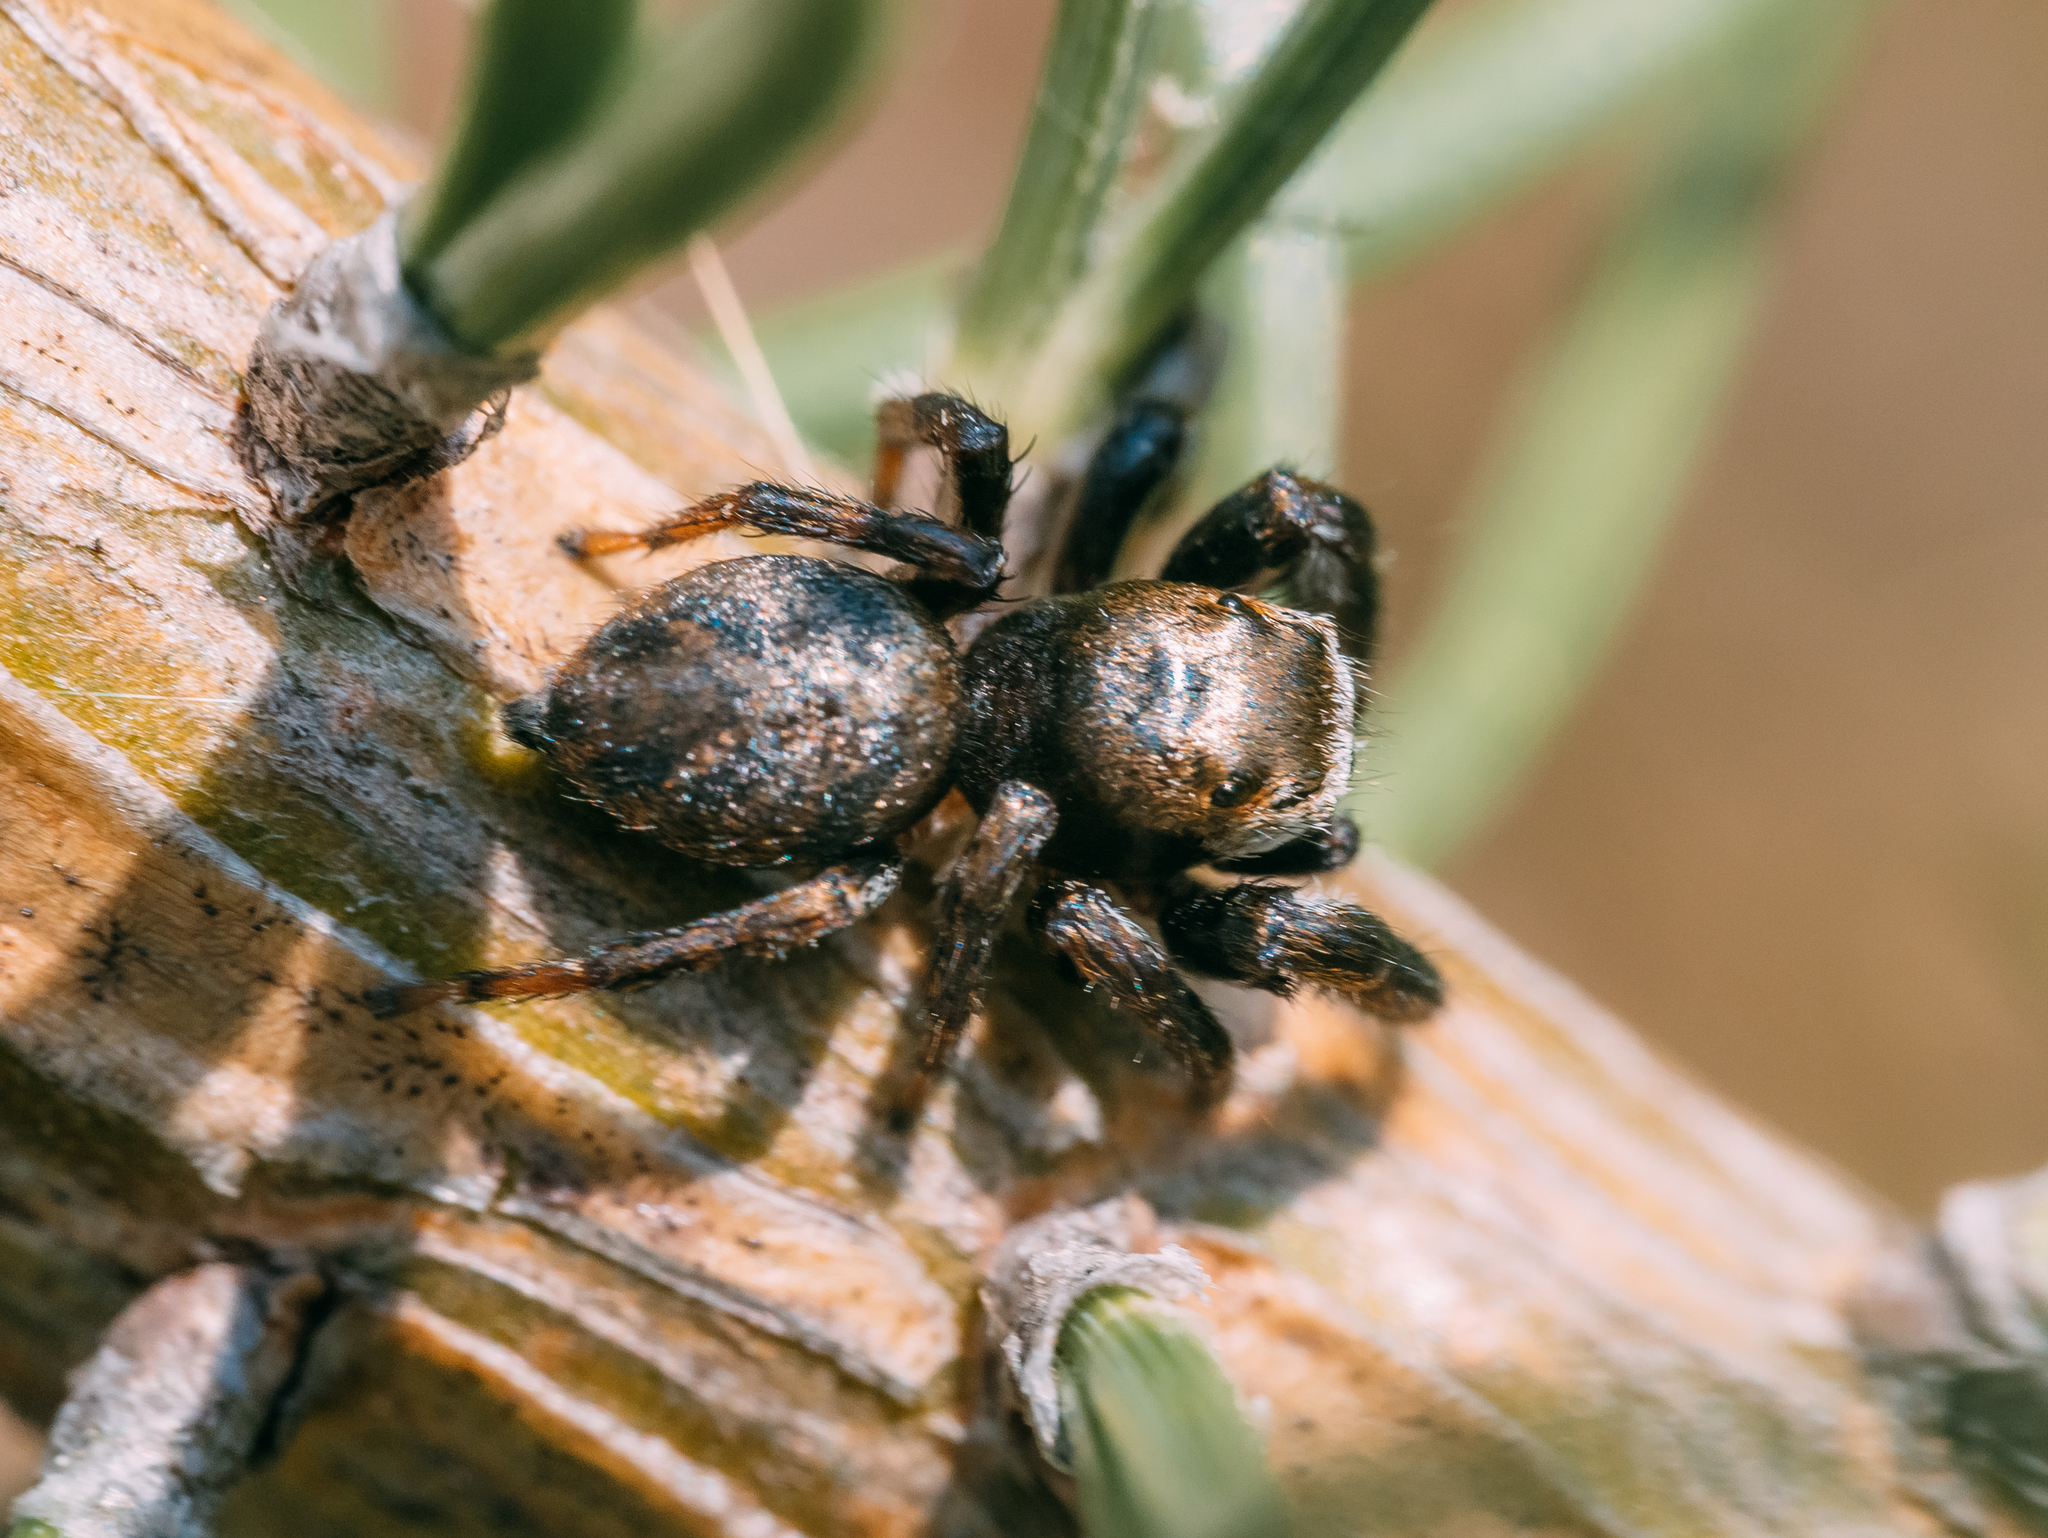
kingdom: Animalia
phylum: Arthropoda
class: Arachnida
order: Araneae
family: Salticidae
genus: Evarcha
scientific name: Evarcha arcuata
